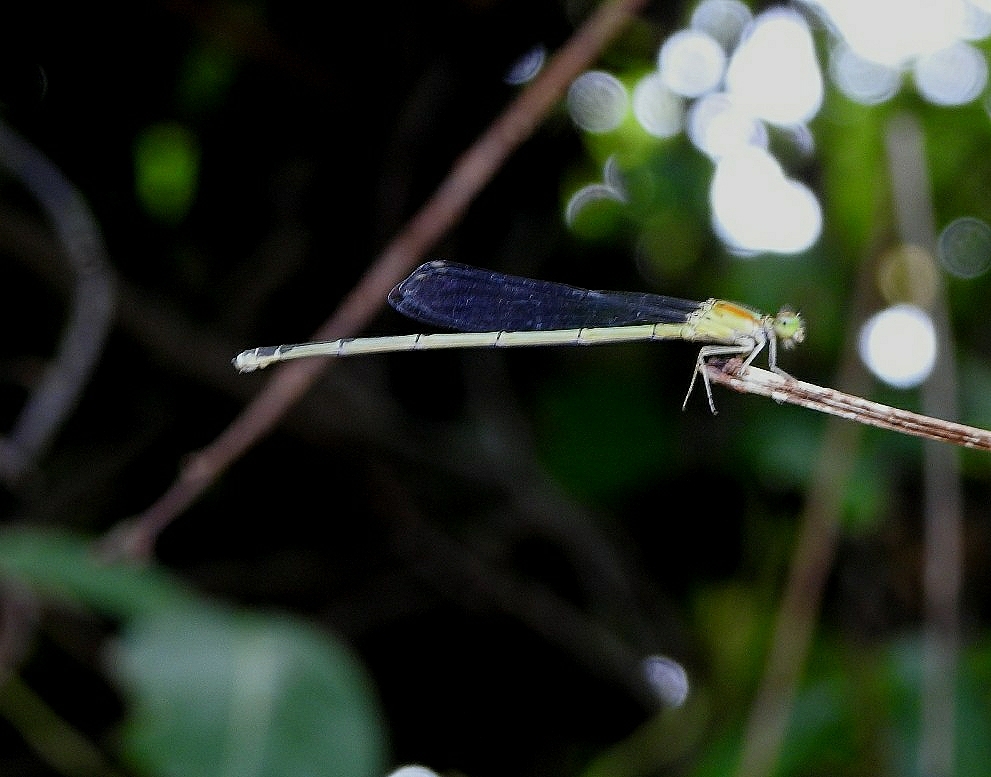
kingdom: Animalia
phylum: Arthropoda
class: Insecta
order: Odonata
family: Coenagrionidae
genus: Pseudagrion
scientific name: Pseudagrion microcephalum
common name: Blue riverdamsel
